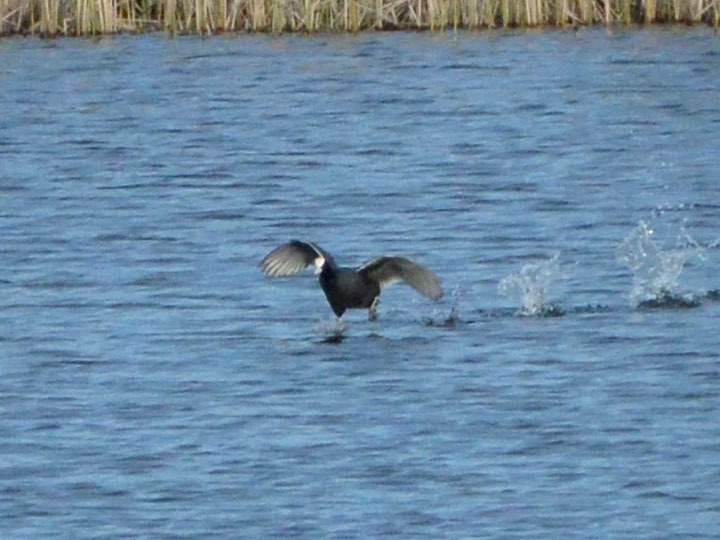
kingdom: Animalia
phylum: Chordata
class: Aves
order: Gruiformes
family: Rallidae
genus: Fulica
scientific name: Fulica atra
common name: Eurasian coot
